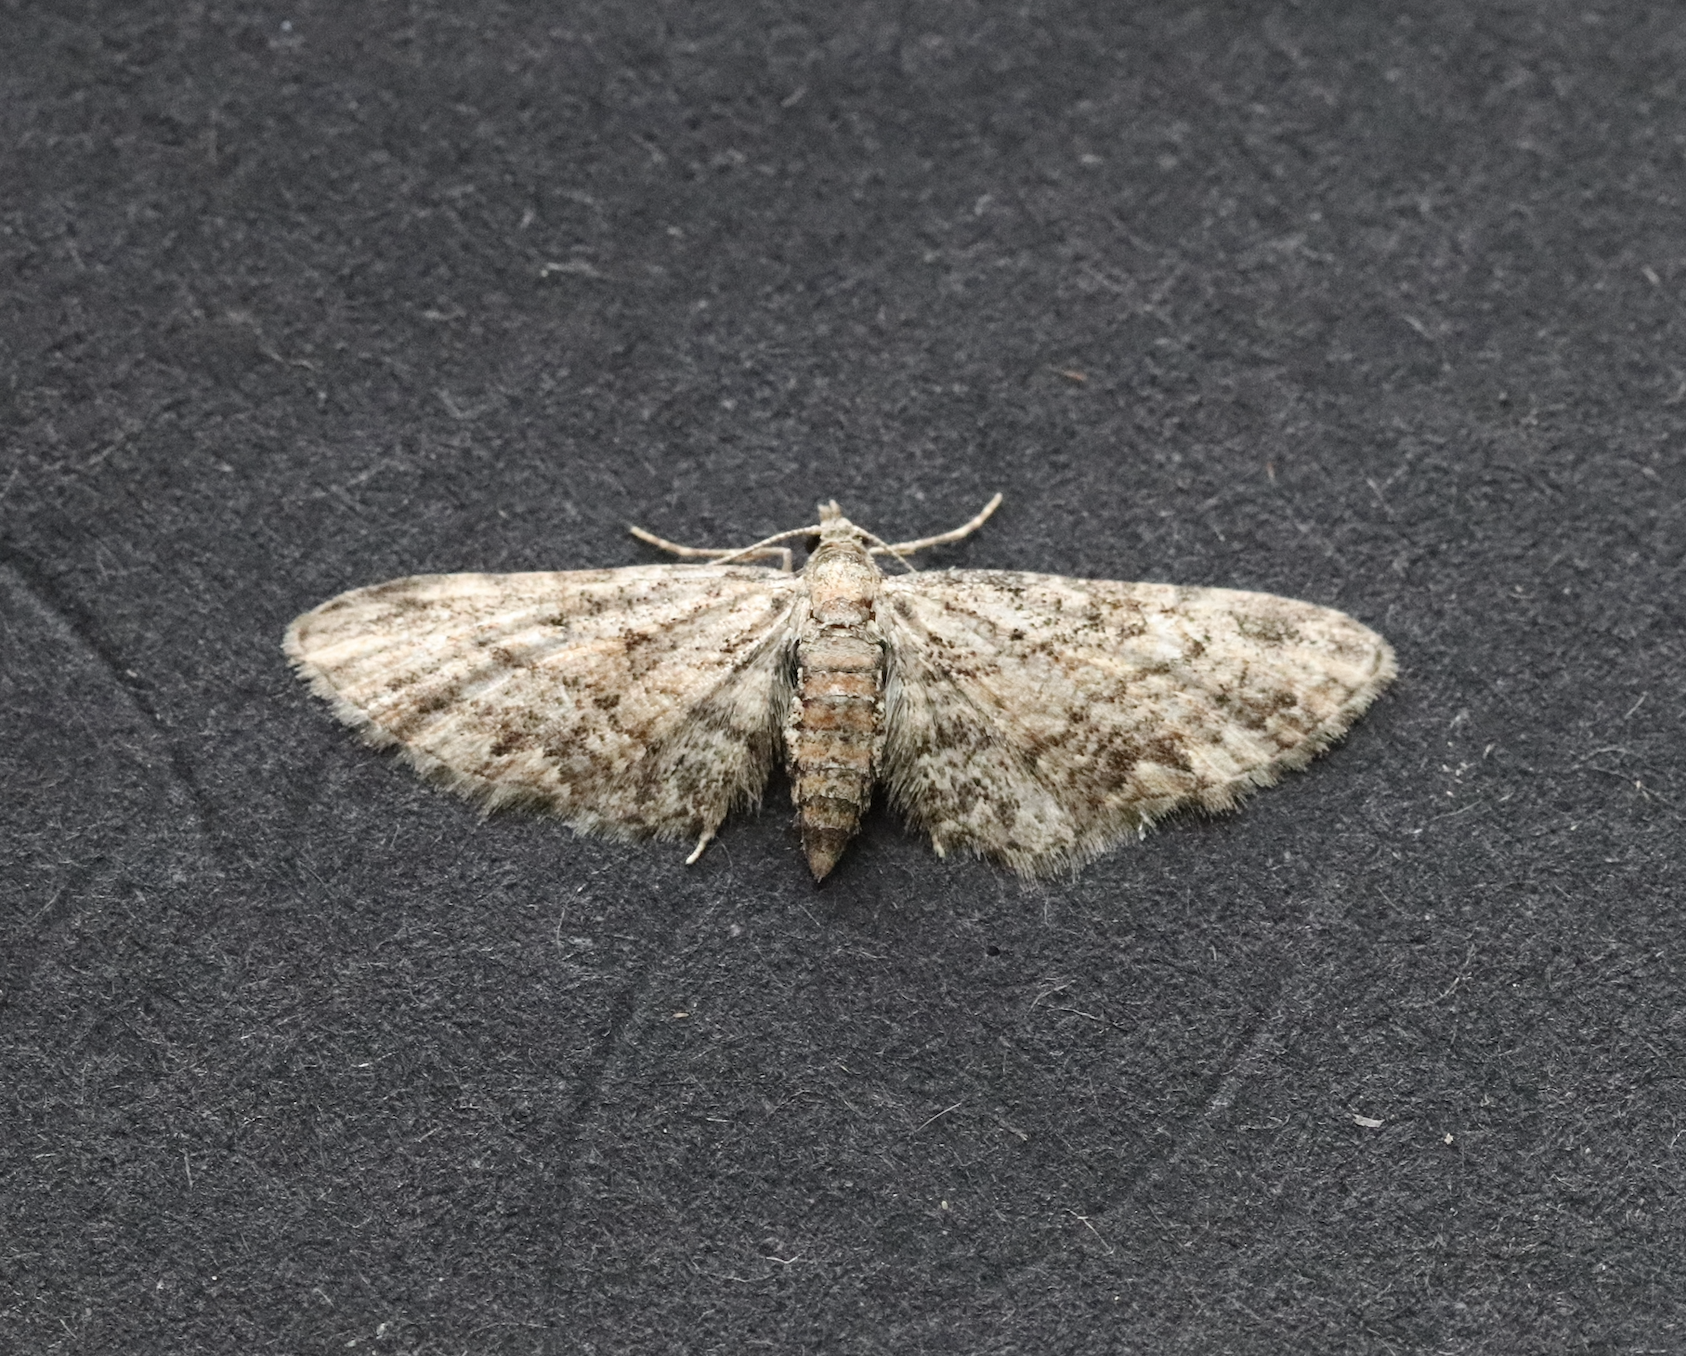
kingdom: Animalia
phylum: Arthropoda
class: Insecta
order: Lepidoptera
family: Geometridae
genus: Eupithecia
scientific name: Eupithecia inturbata
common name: Maple pug
